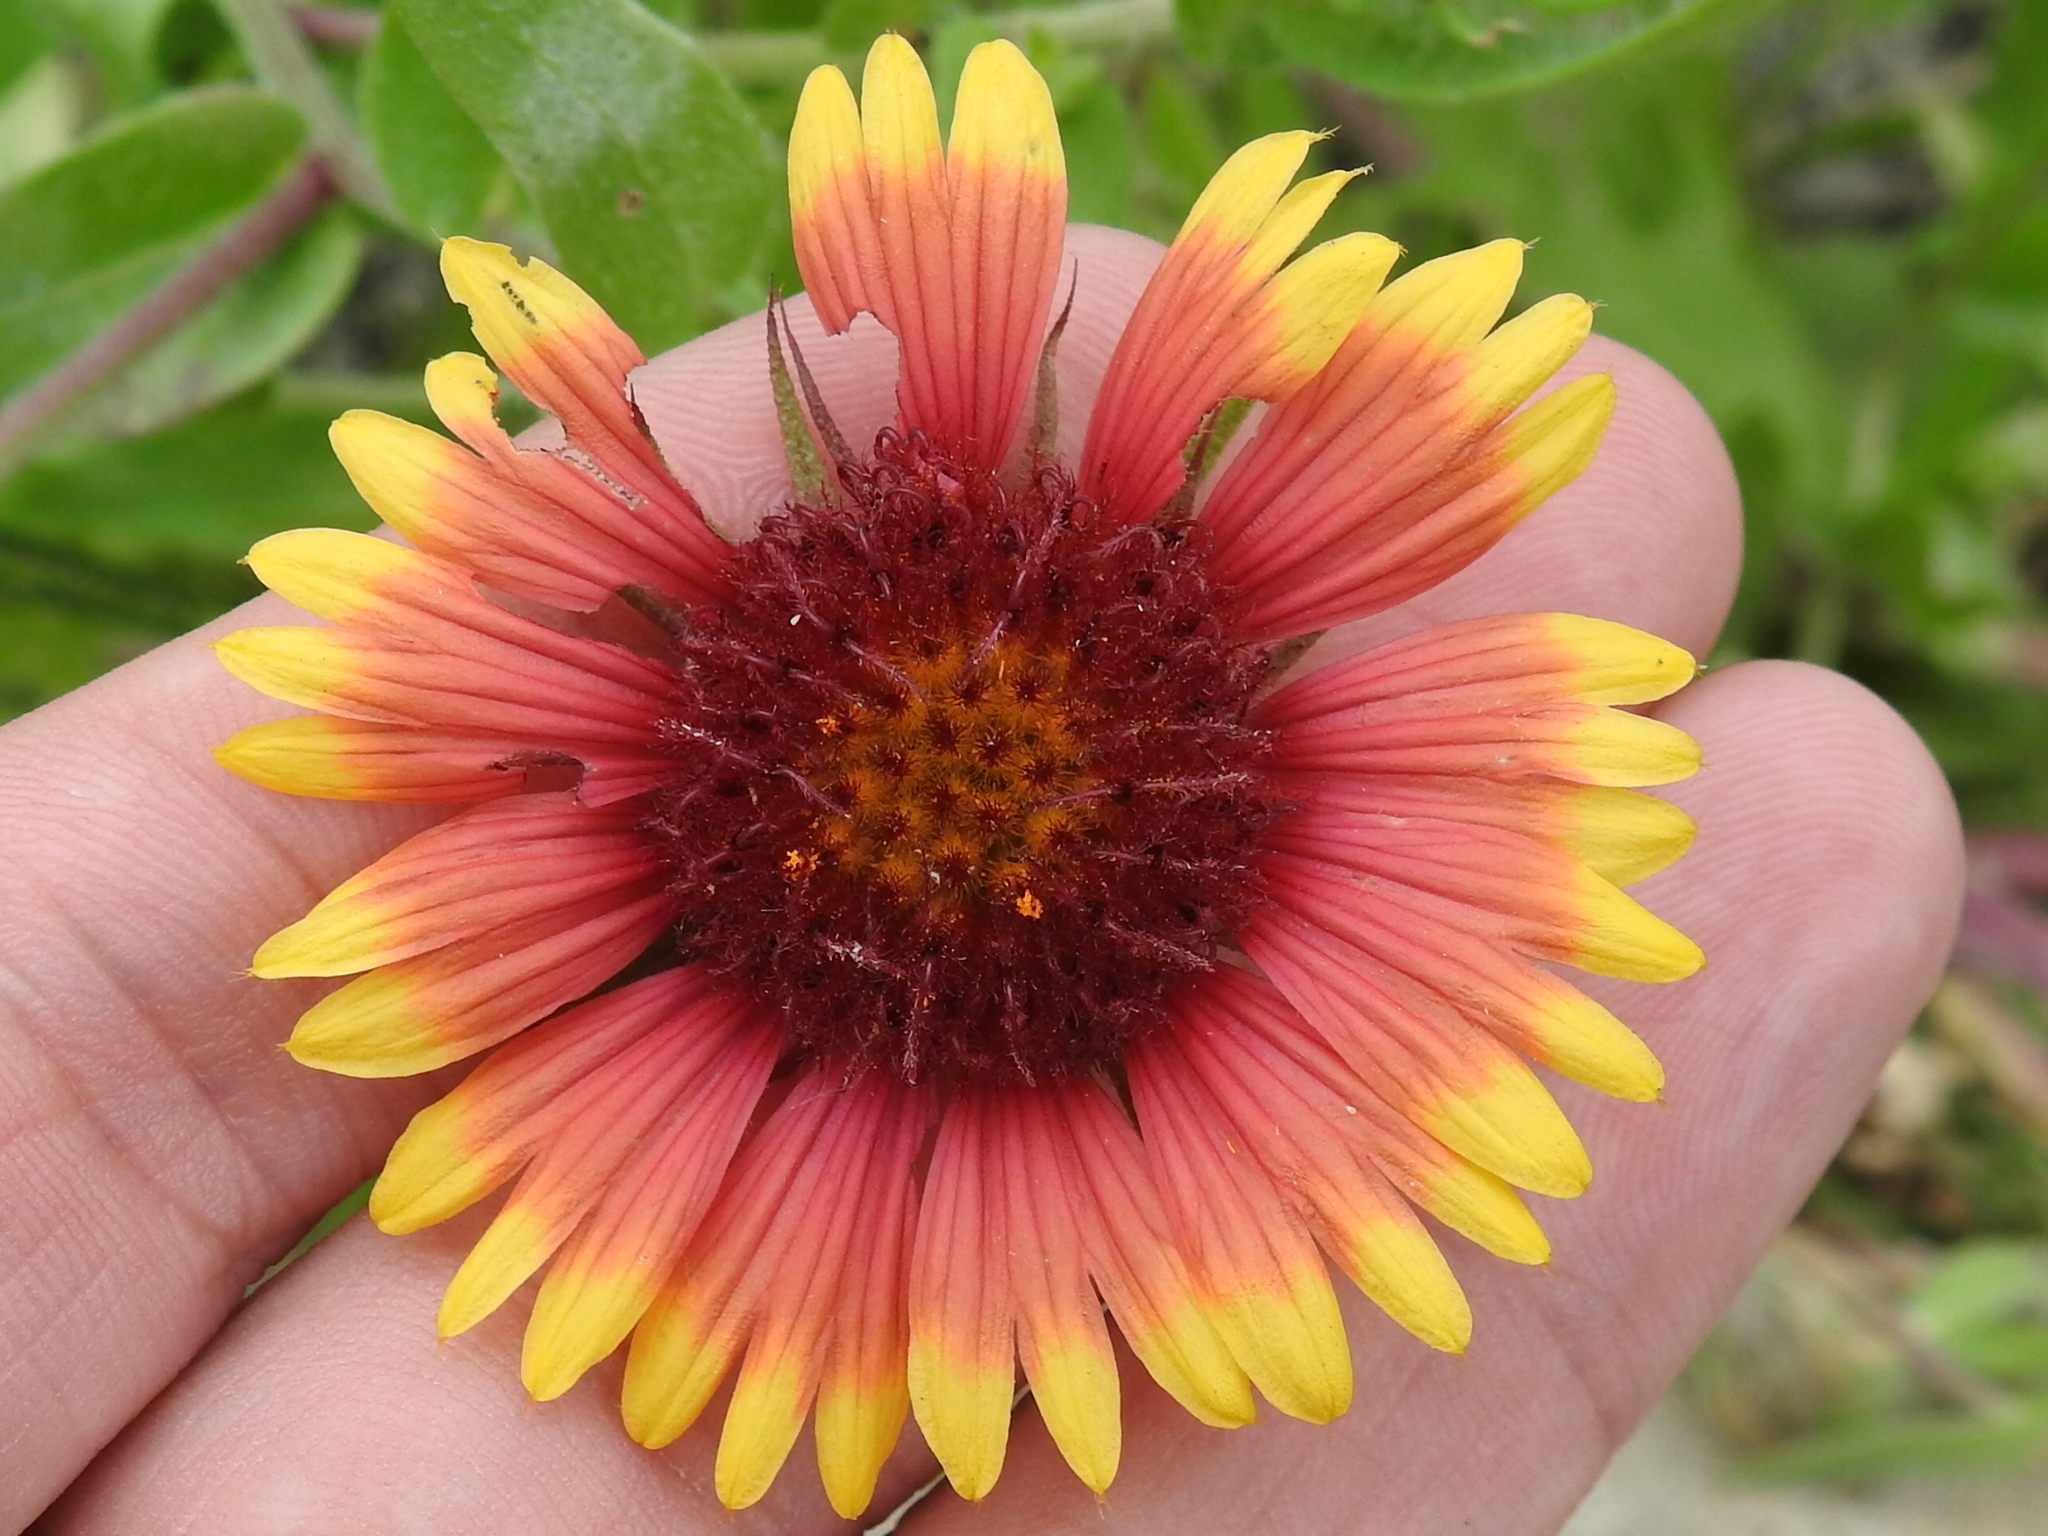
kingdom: Plantae
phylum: Tracheophyta
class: Magnoliopsida
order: Asterales
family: Asteraceae
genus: Gaillardia
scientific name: Gaillardia pulchella
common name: Firewheel
